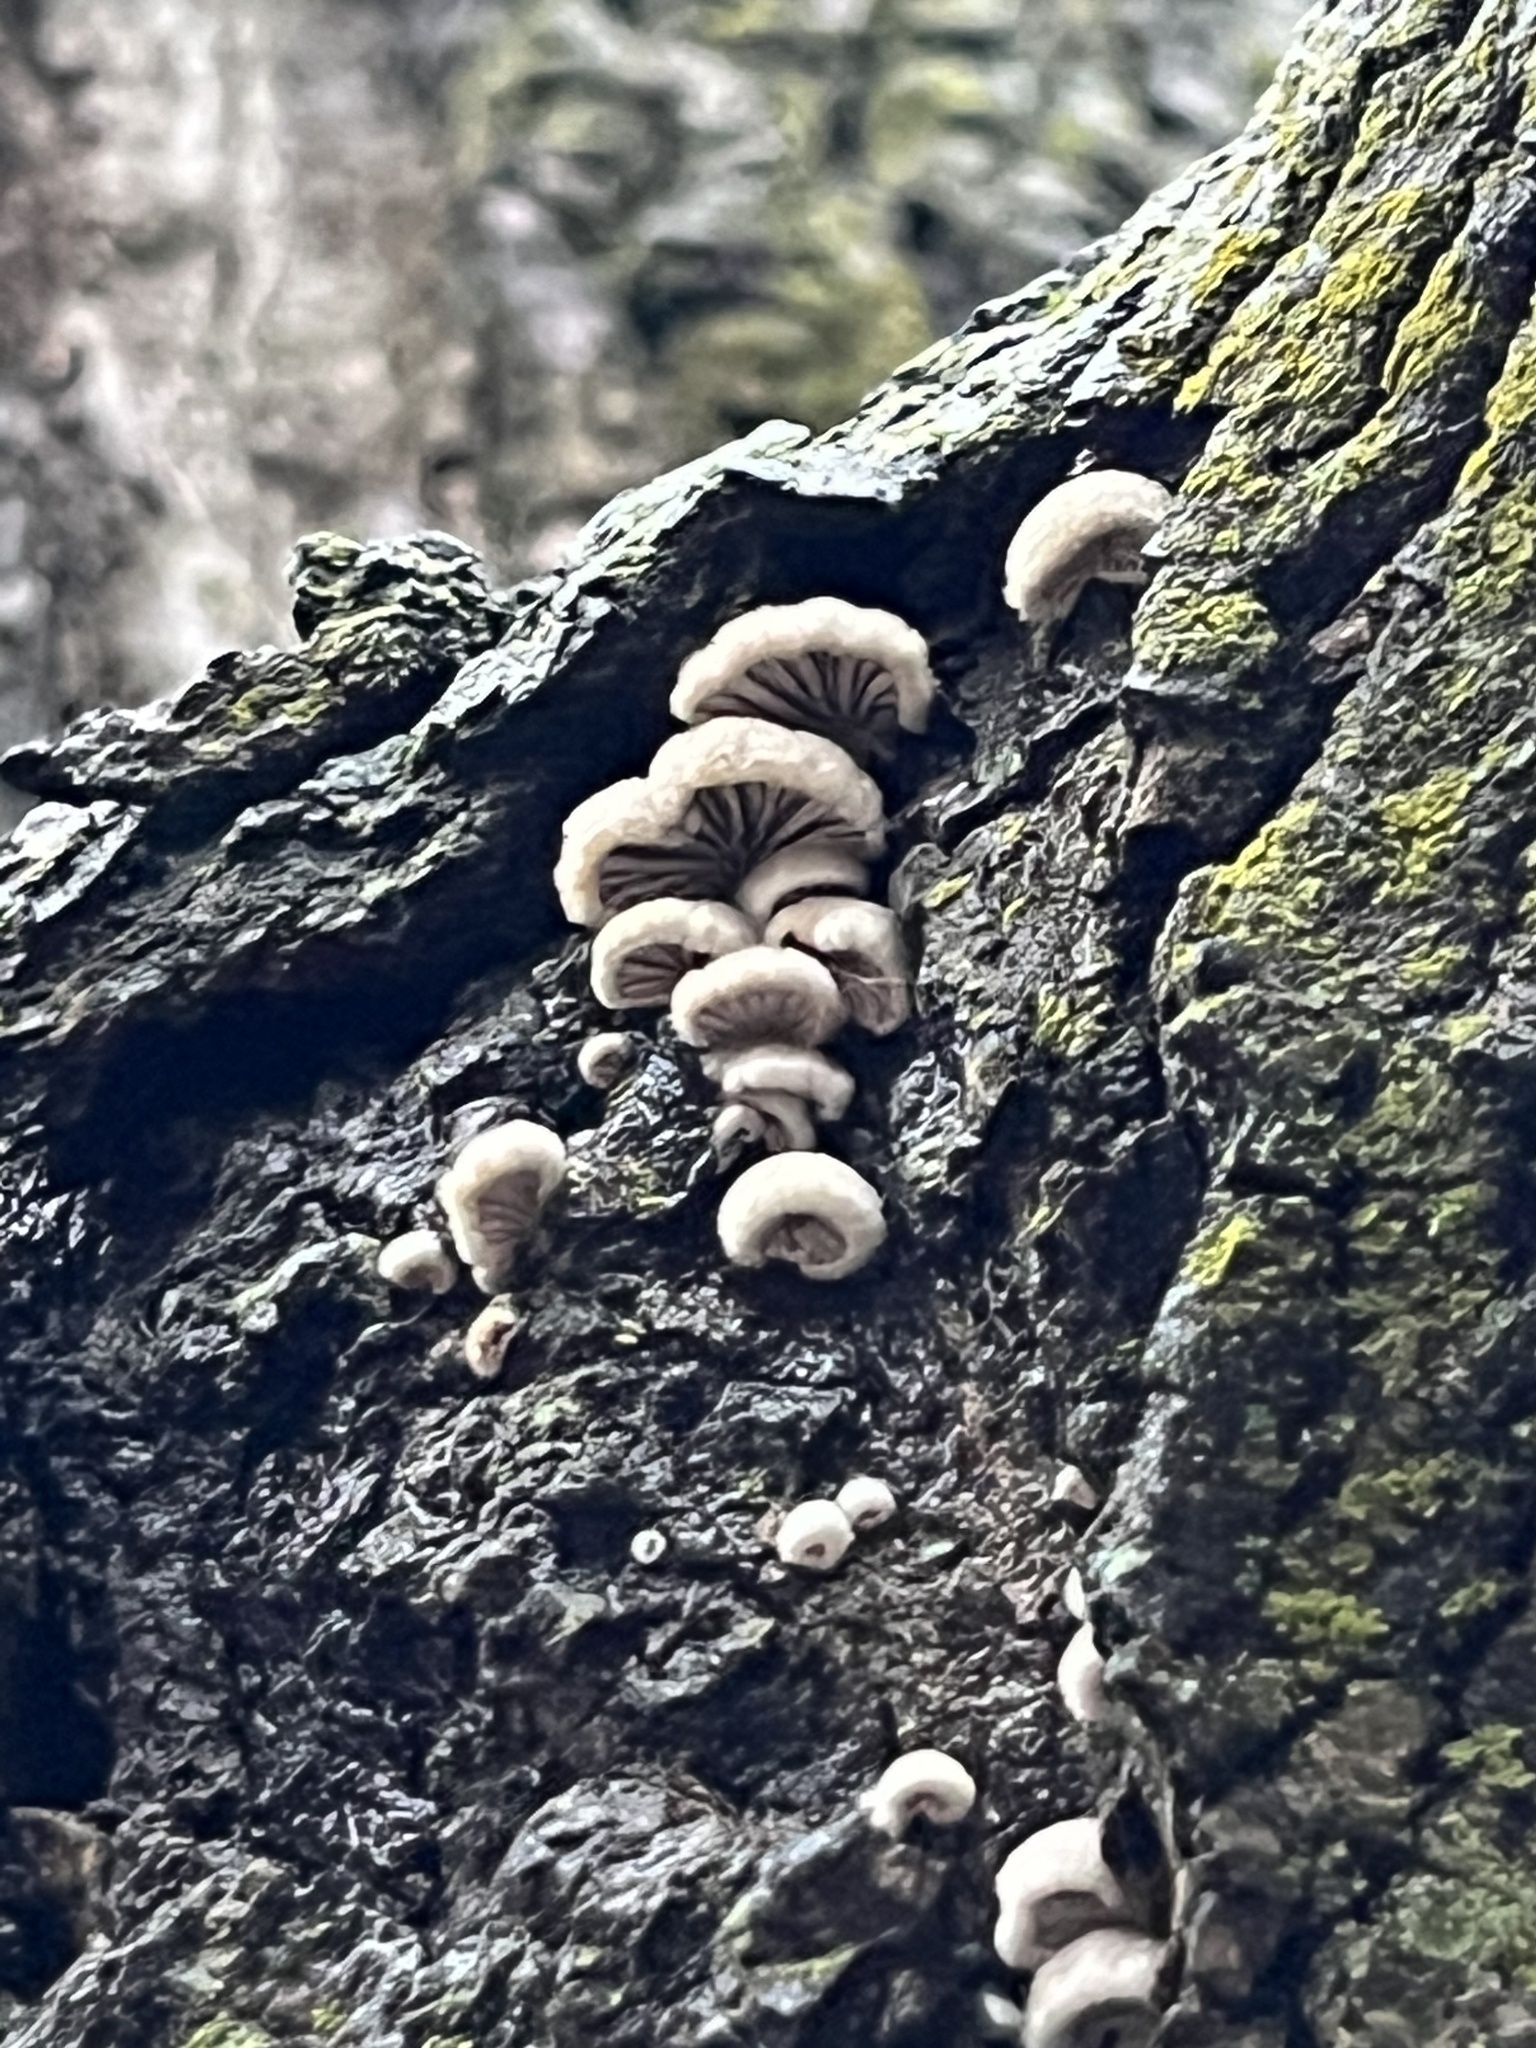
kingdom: Fungi
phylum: Basidiomycota
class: Agaricomycetes
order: Agaricales
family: Schizophyllaceae
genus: Schizophyllum
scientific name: Schizophyllum commune
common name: Common porecrust
